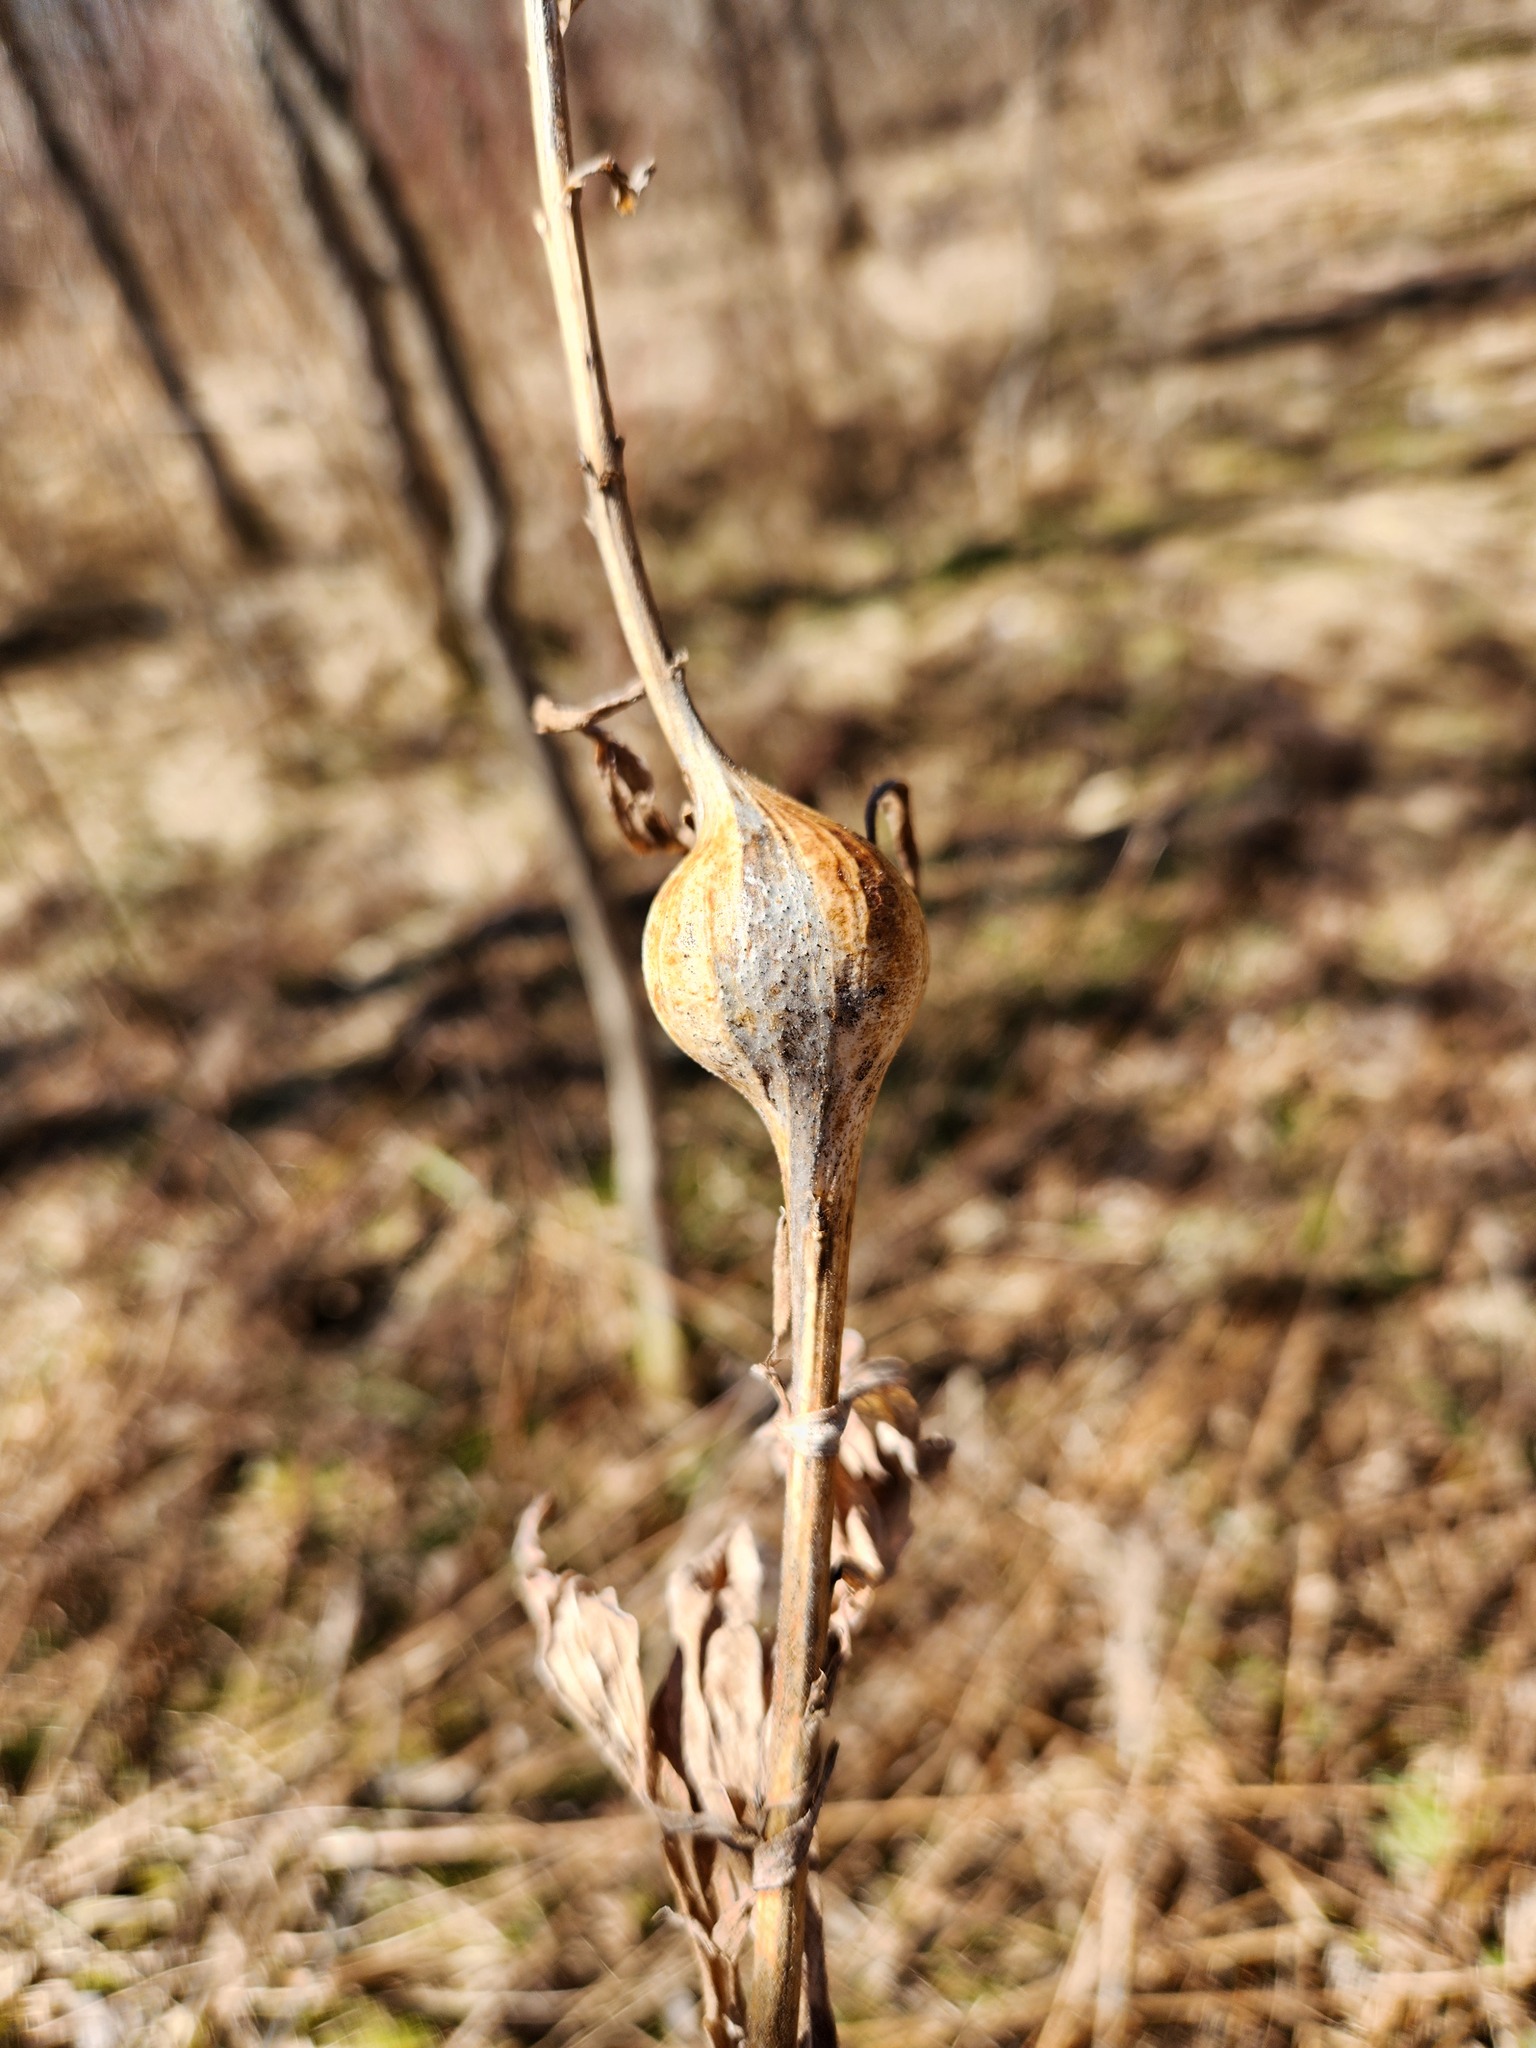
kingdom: Animalia
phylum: Arthropoda
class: Insecta
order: Diptera
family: Tephritidae
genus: Eurosta
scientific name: Eurosta solidaginis
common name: Goldenrod gall fly
